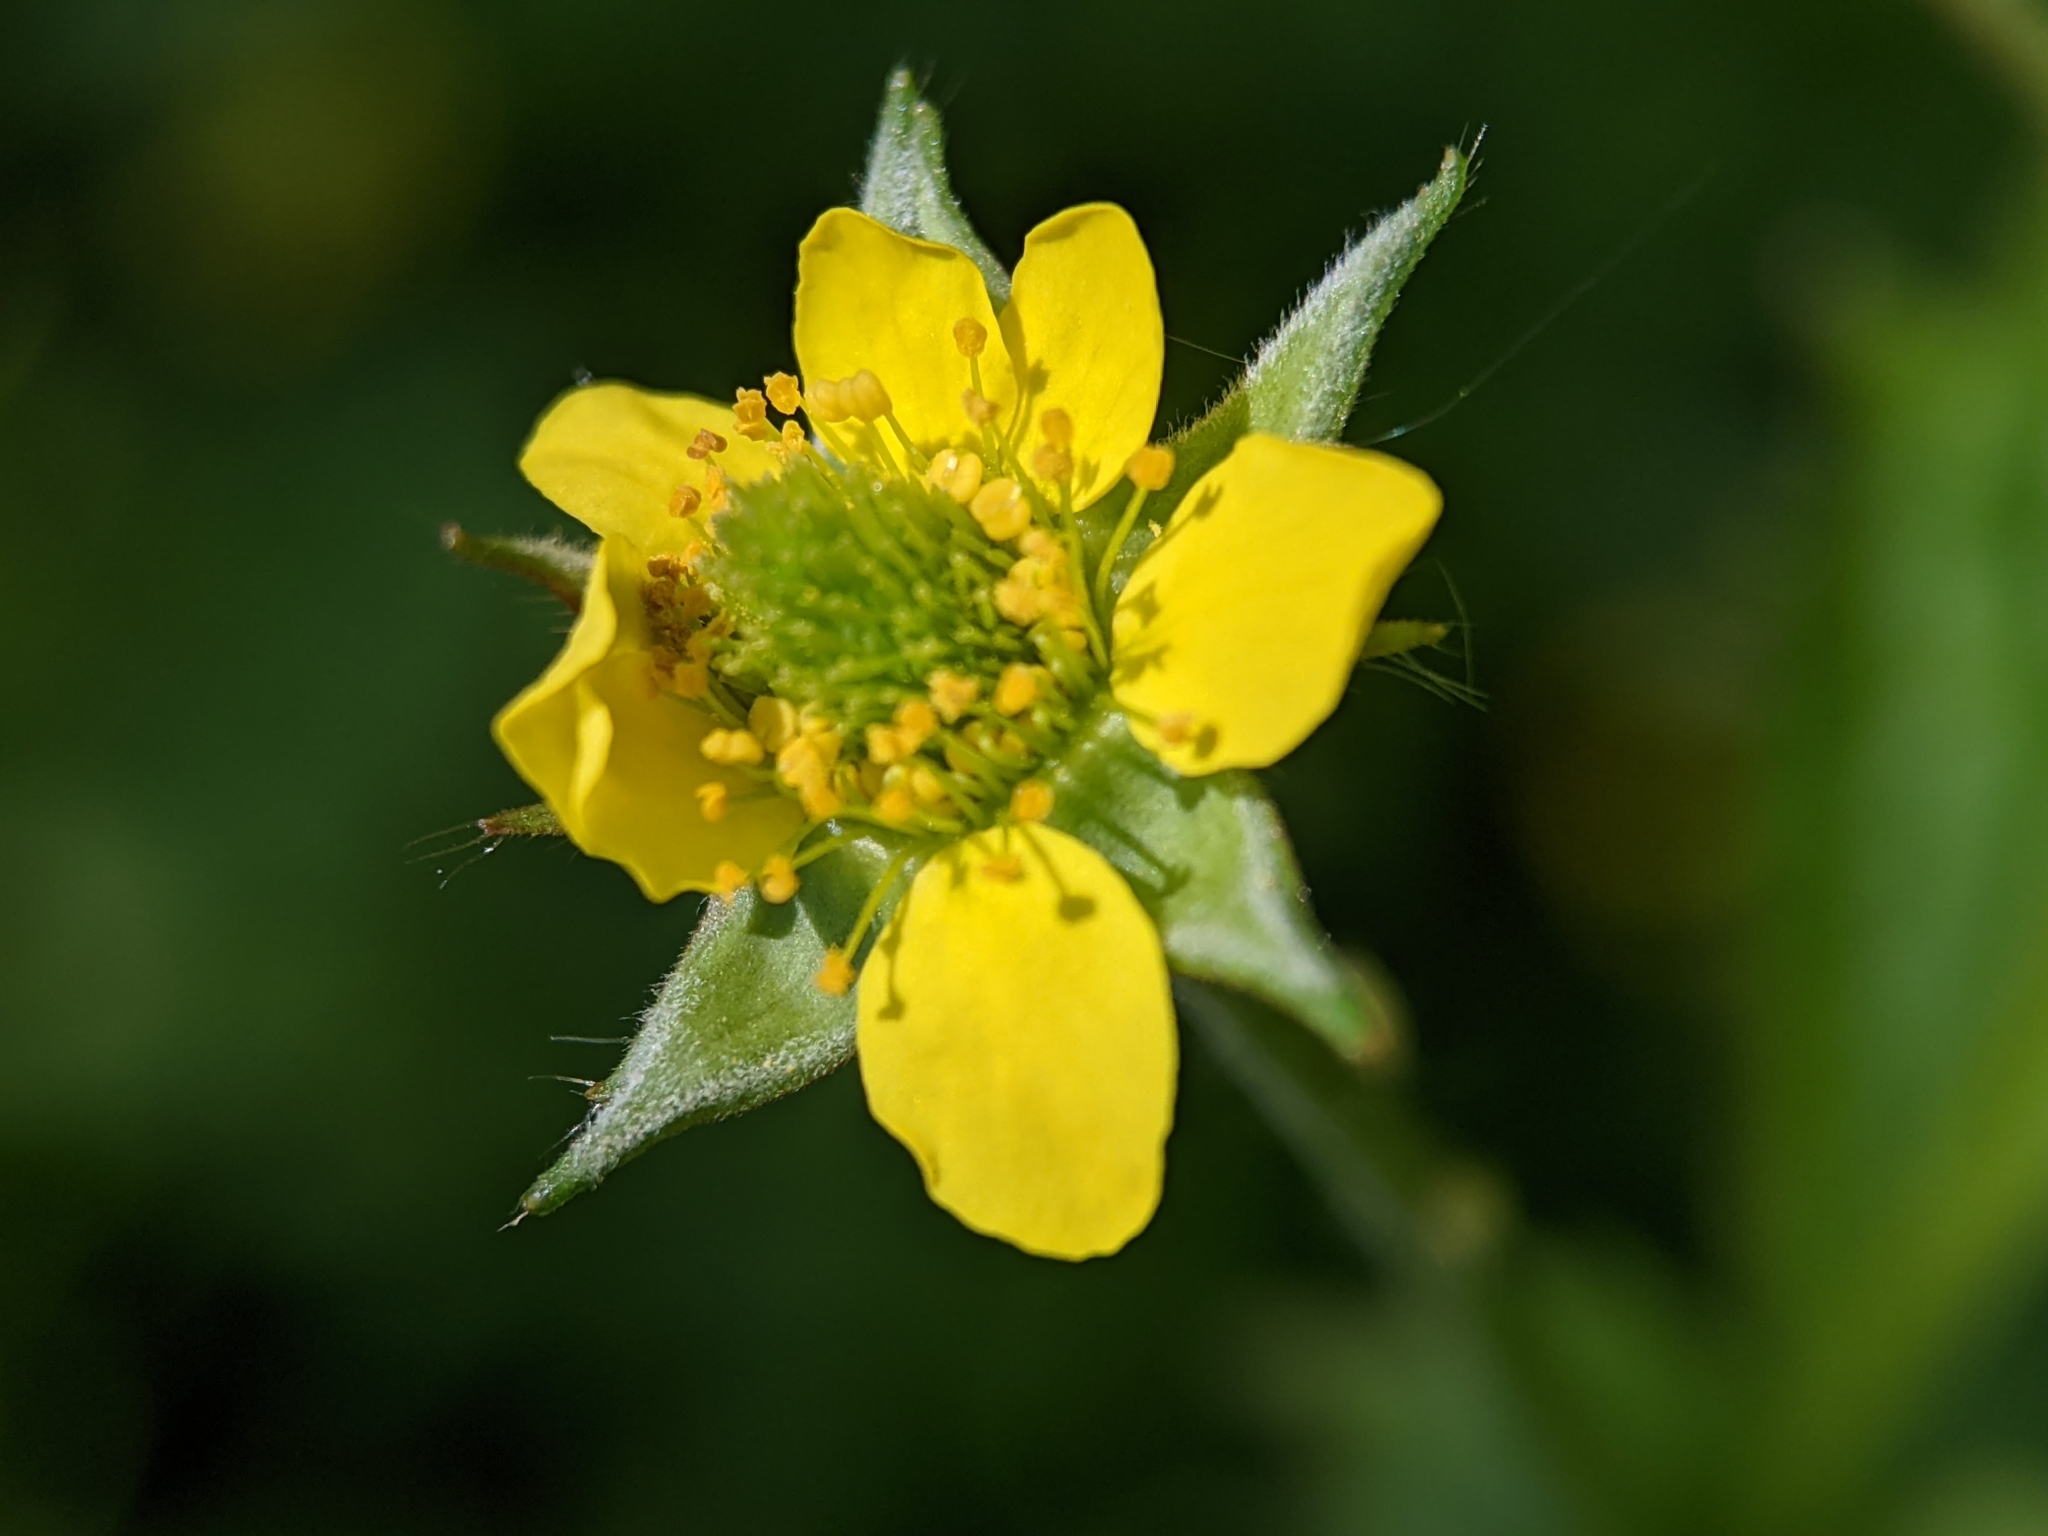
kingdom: Plantae
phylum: Tracheophyta
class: Magnoliopsida
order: Rosales
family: Rosaceae
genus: Geum
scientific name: Geum urbanum
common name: Wood avens
